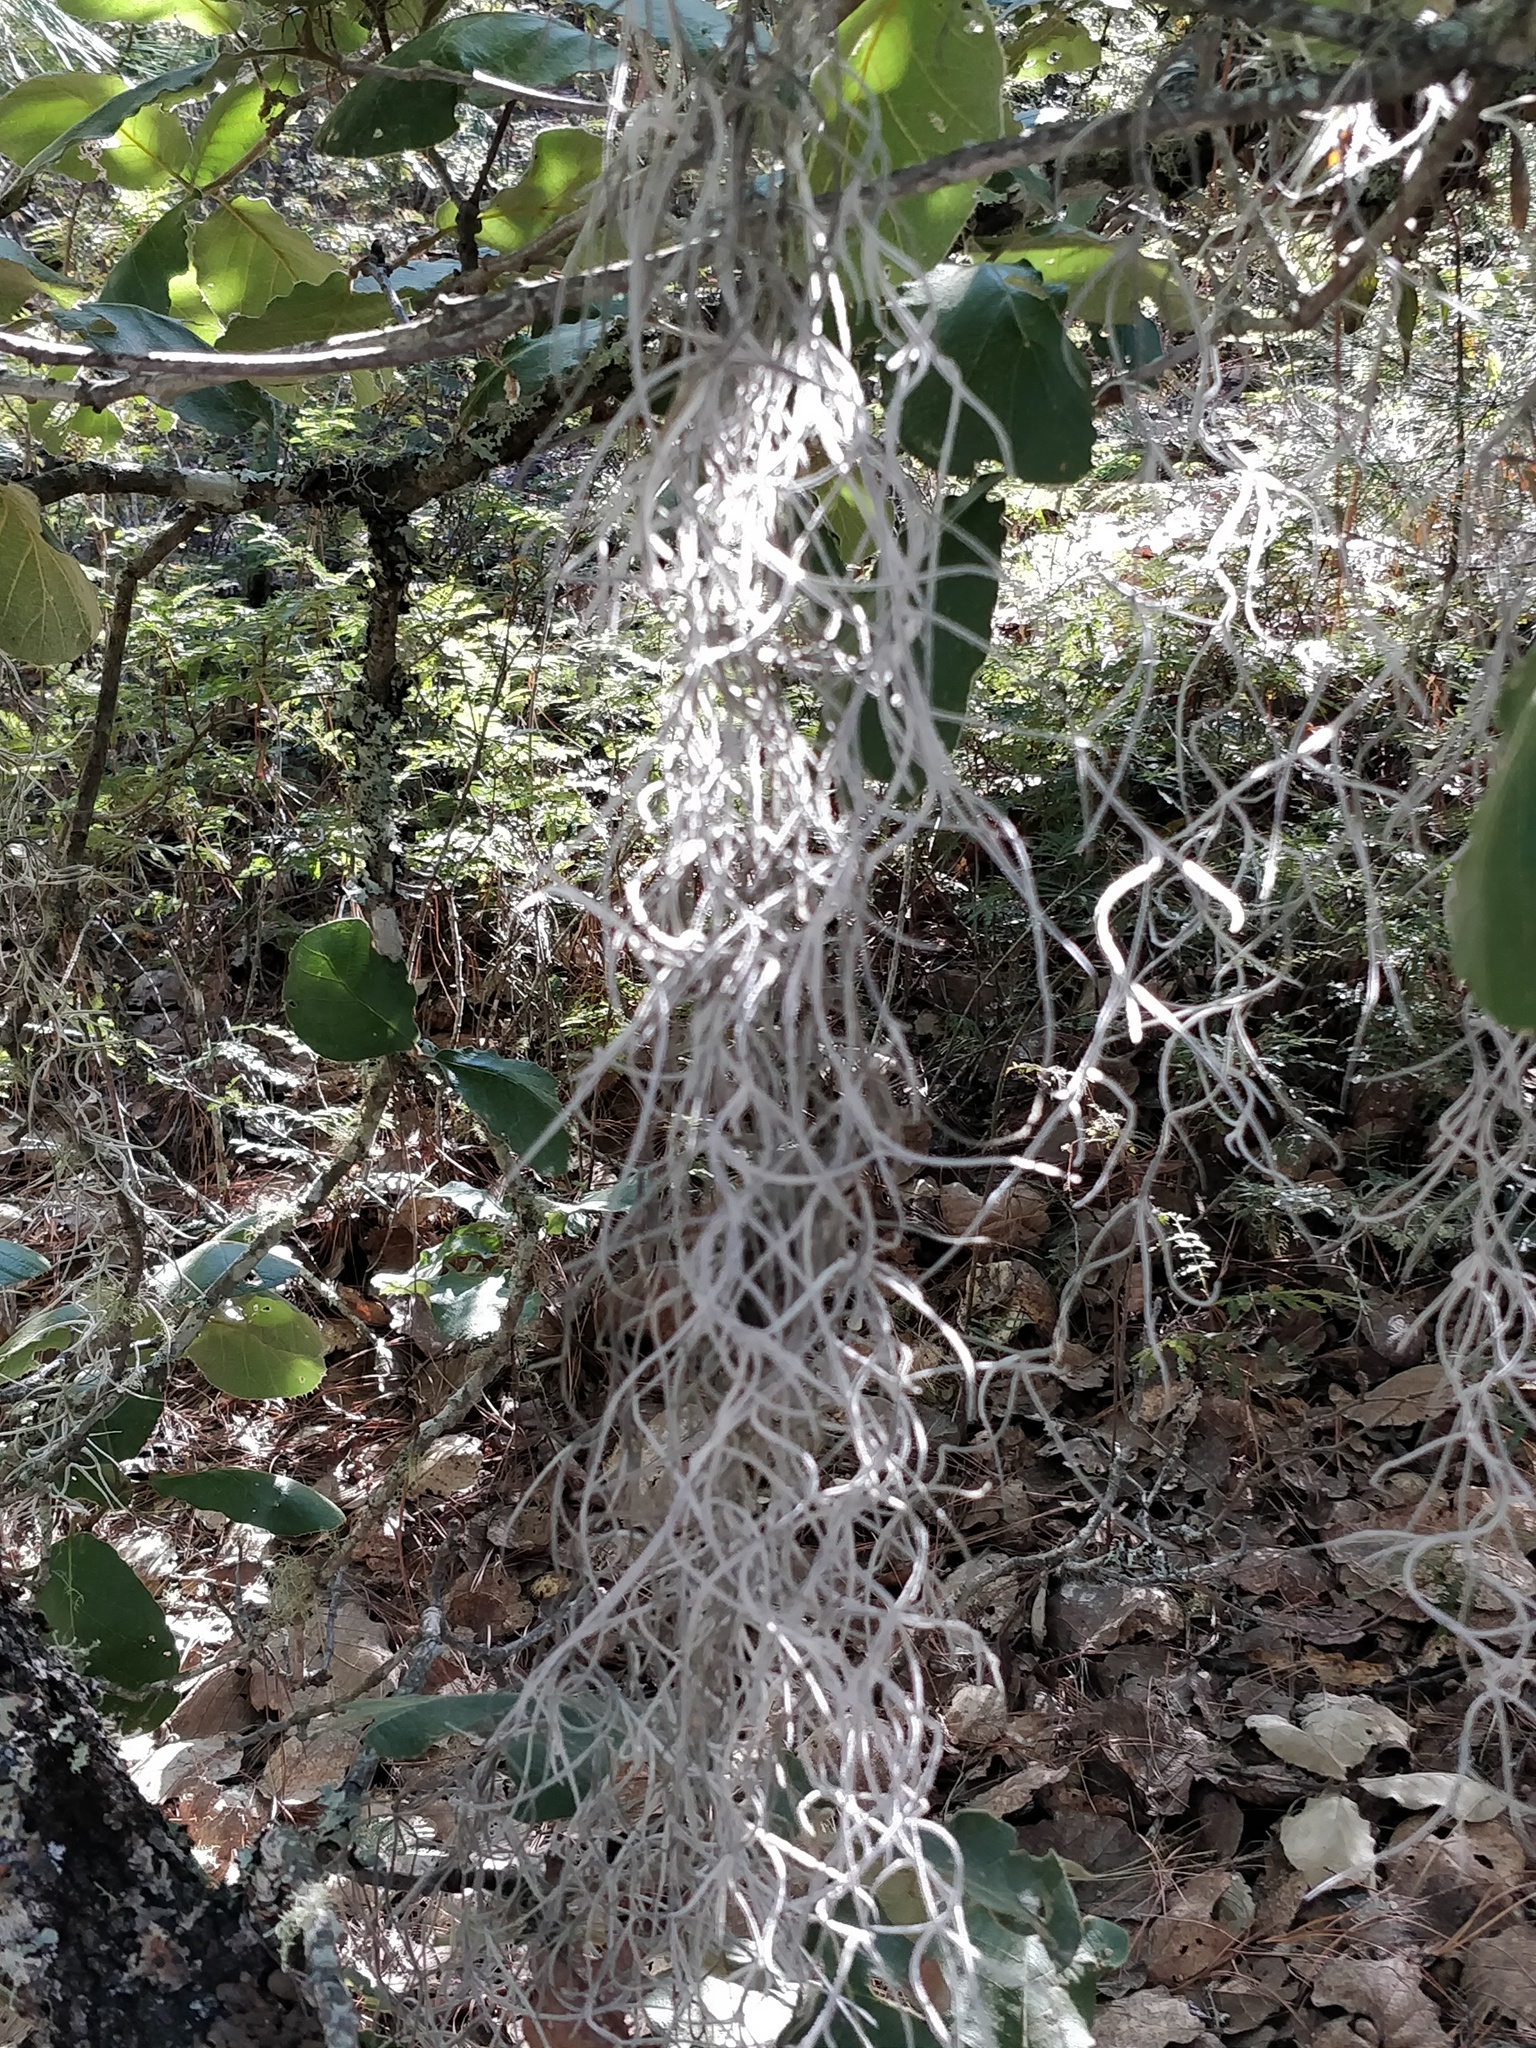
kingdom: Plantae
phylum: Tracheophyta
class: Liliopsida
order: Poales
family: Bromeliaceae
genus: Tillandsia
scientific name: Tillandsia usneoides
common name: Spanish moss
